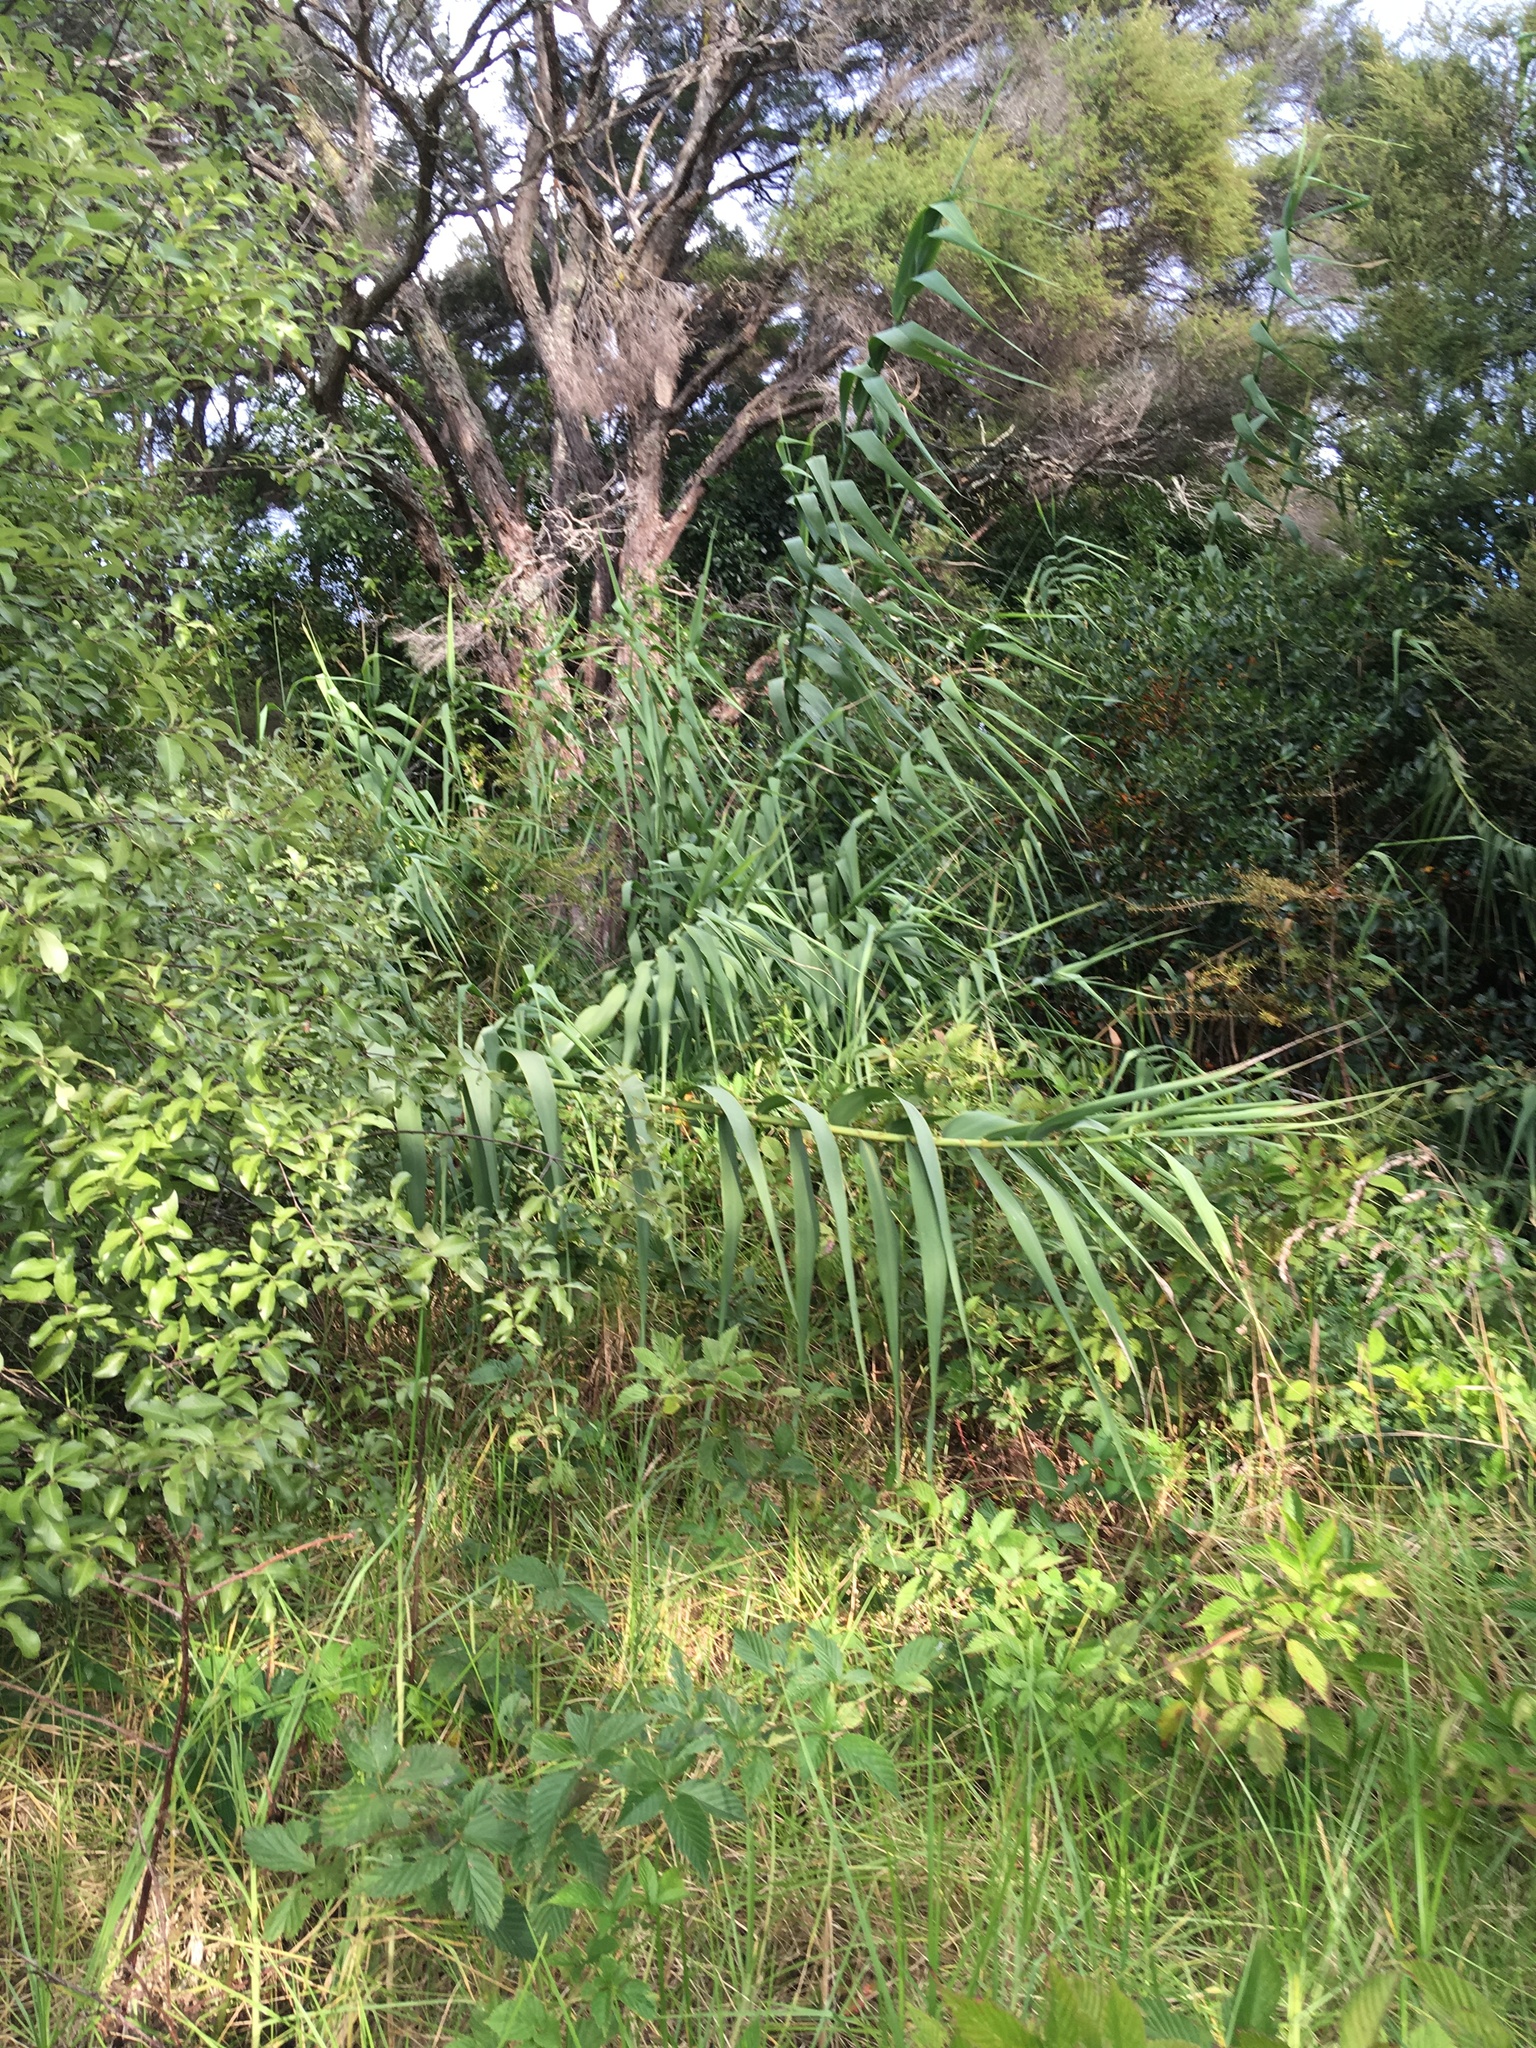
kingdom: Plantae
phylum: Tracheophyta
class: Liliopsida
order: Poales
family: Poaceae
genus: Arundo
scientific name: Arundo donax
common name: Giant reed
